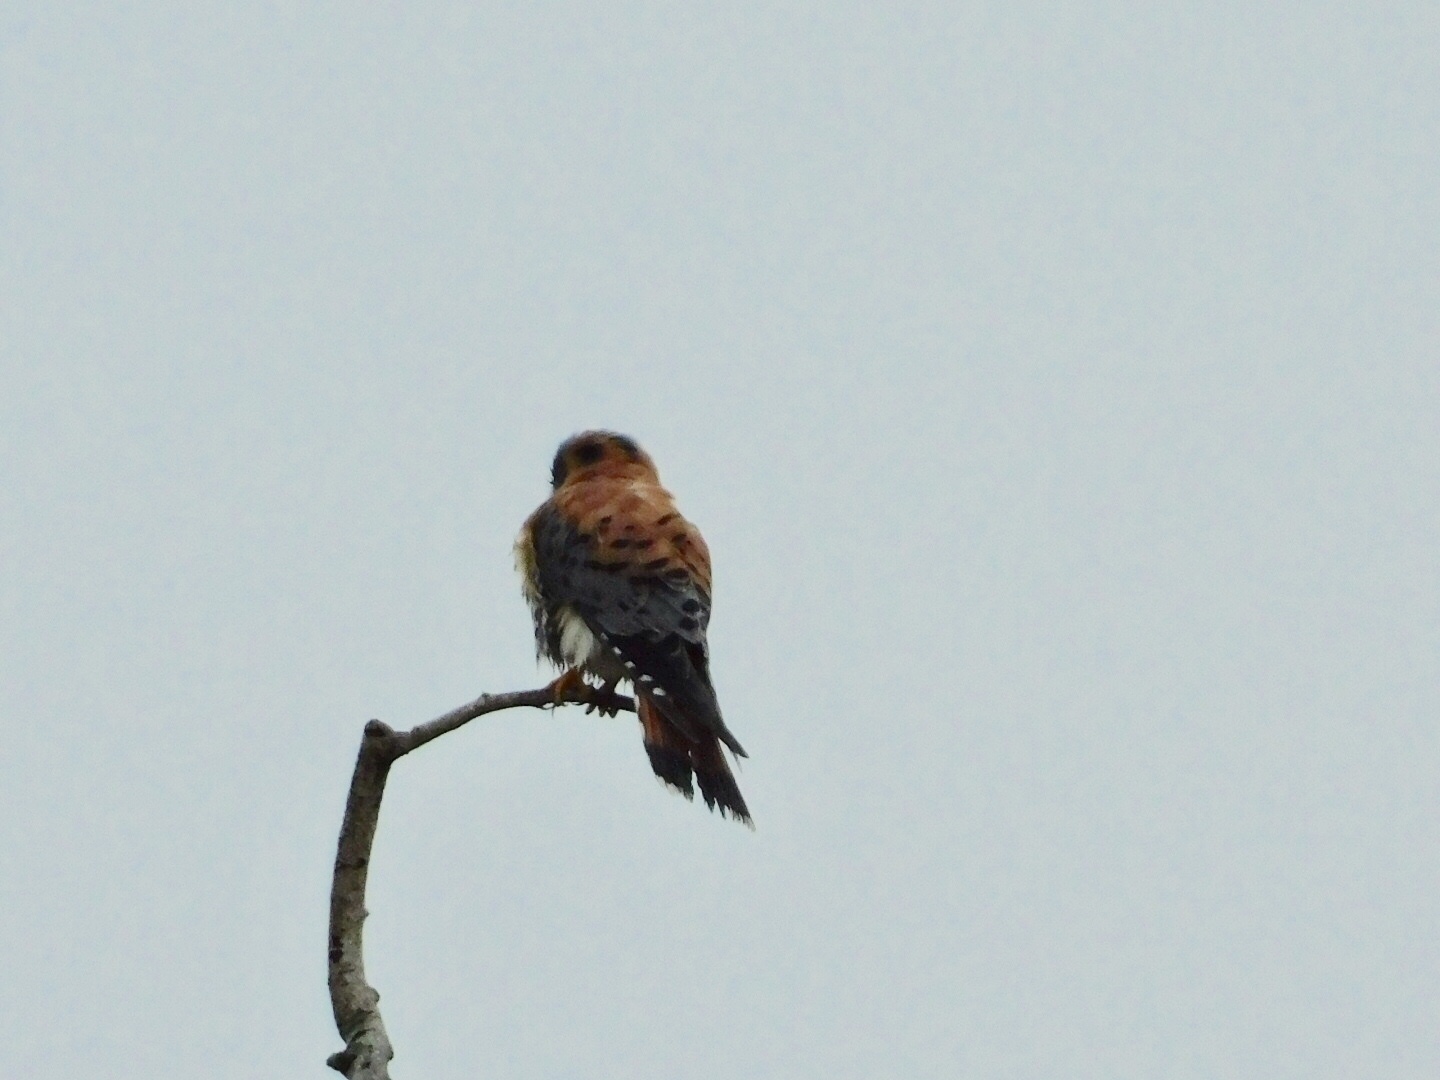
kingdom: Animalia
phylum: Chordata
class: Aves
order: Falconiformes
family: Falconidae
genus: Falco
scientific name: Falco sparverius
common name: American kestrel
